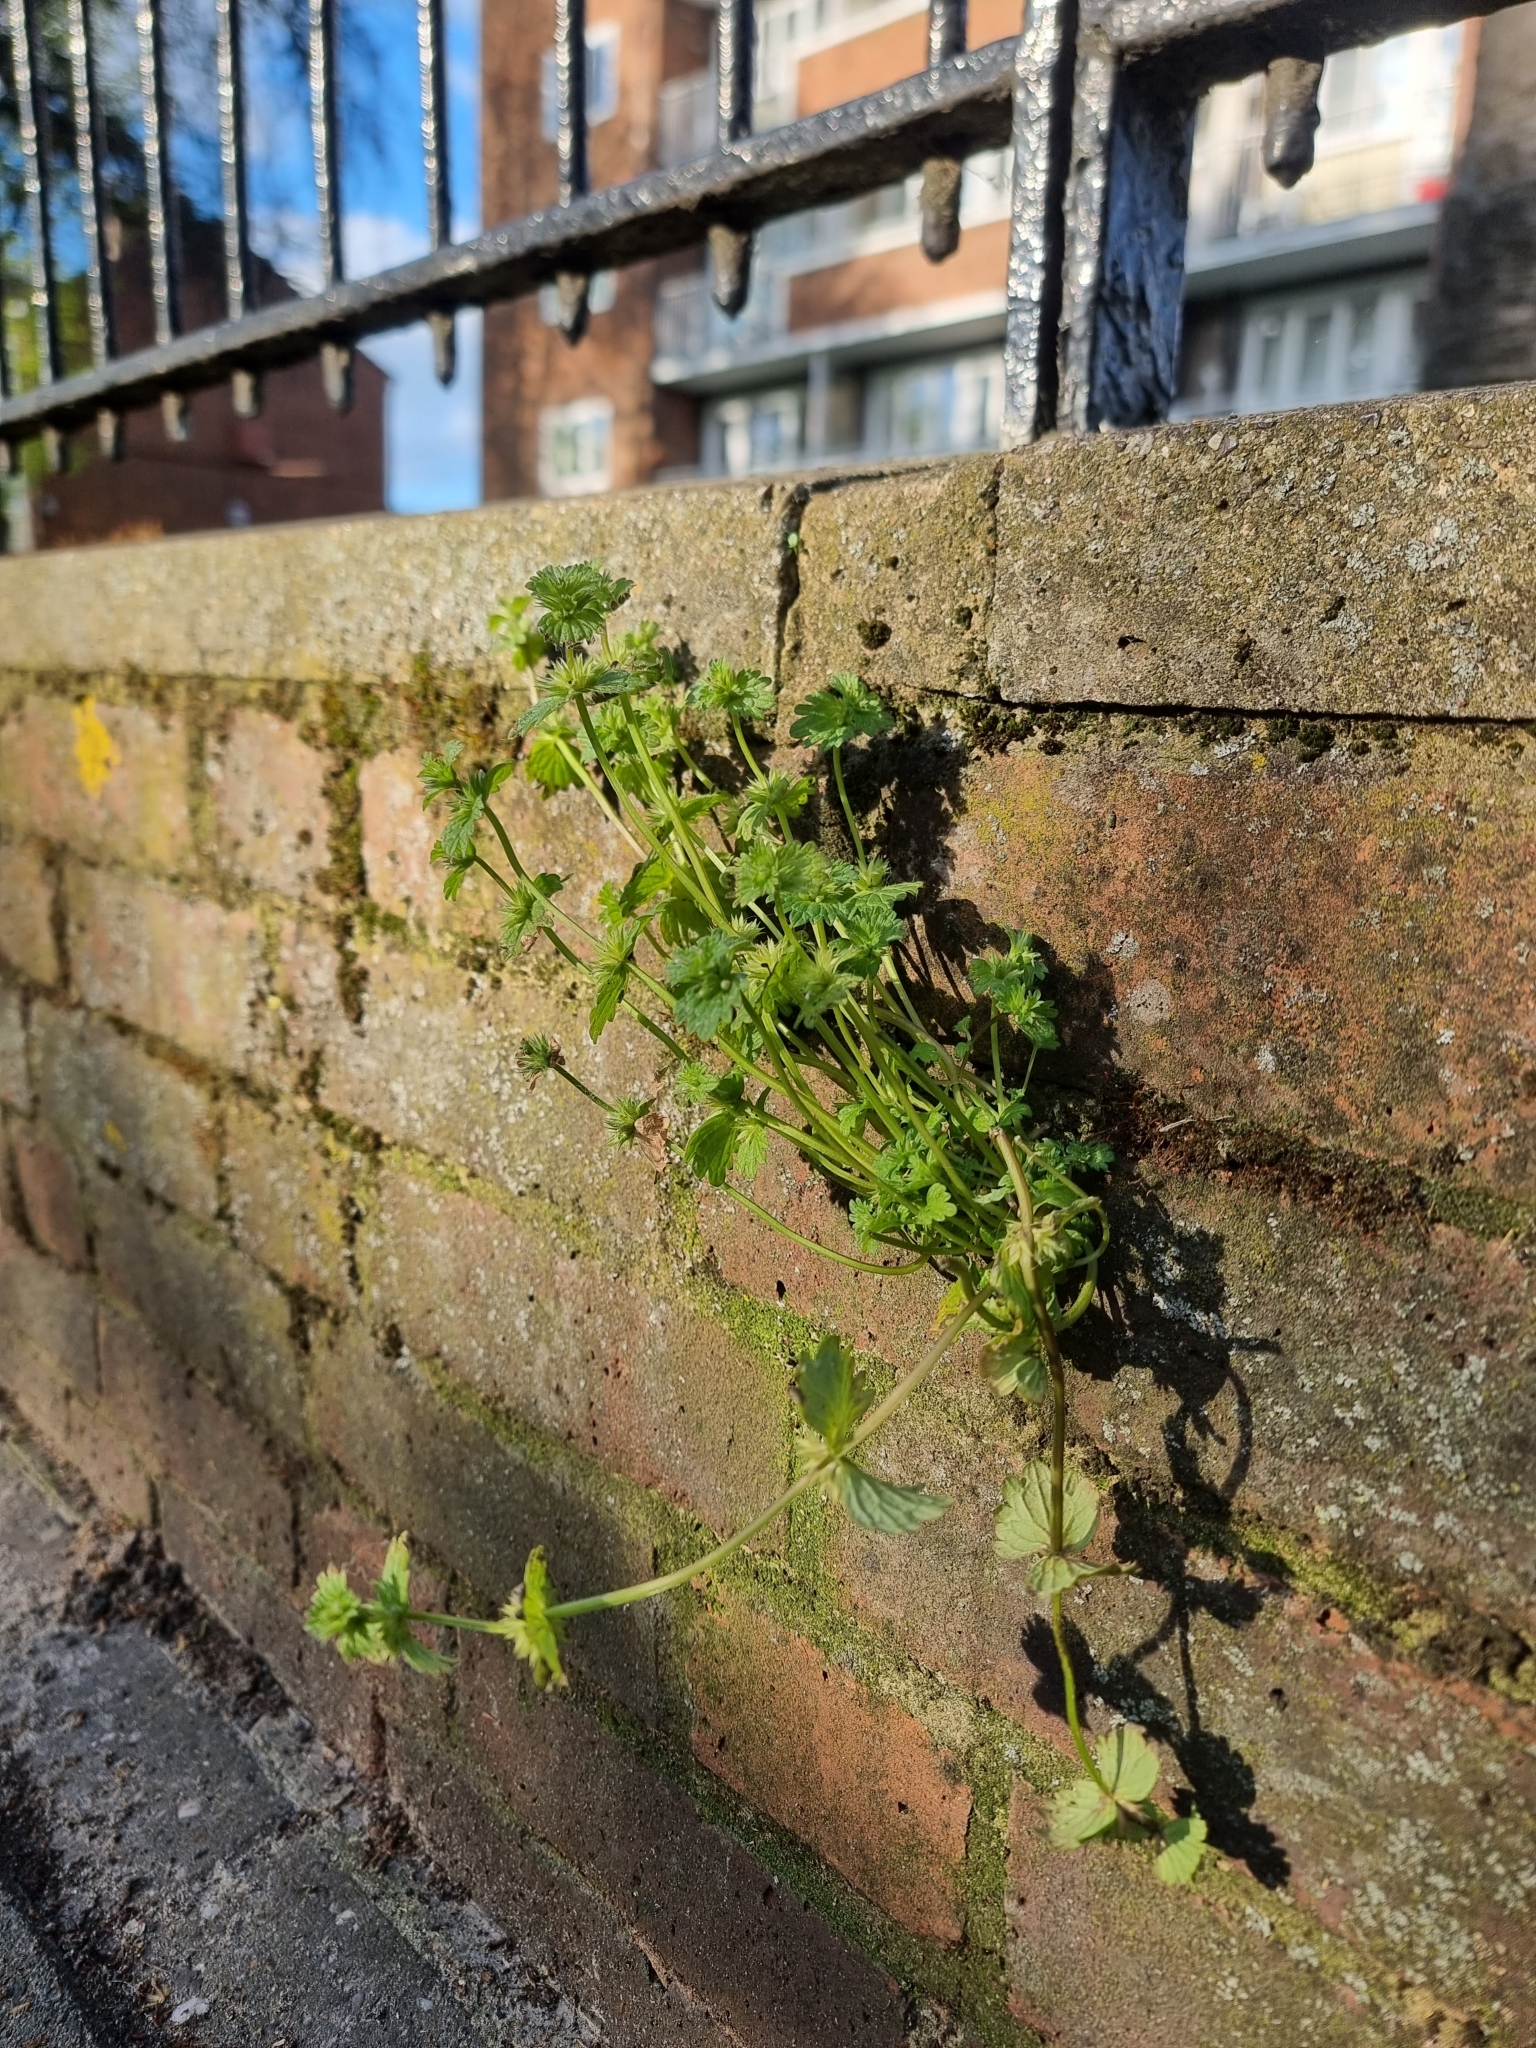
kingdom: Plantae
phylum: Tracheophyta
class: Magnoliopsida
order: Lamiales
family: Lamiaceae
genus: Lamium
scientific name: Lamium amplexicaule
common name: Henbit dead-nettle
